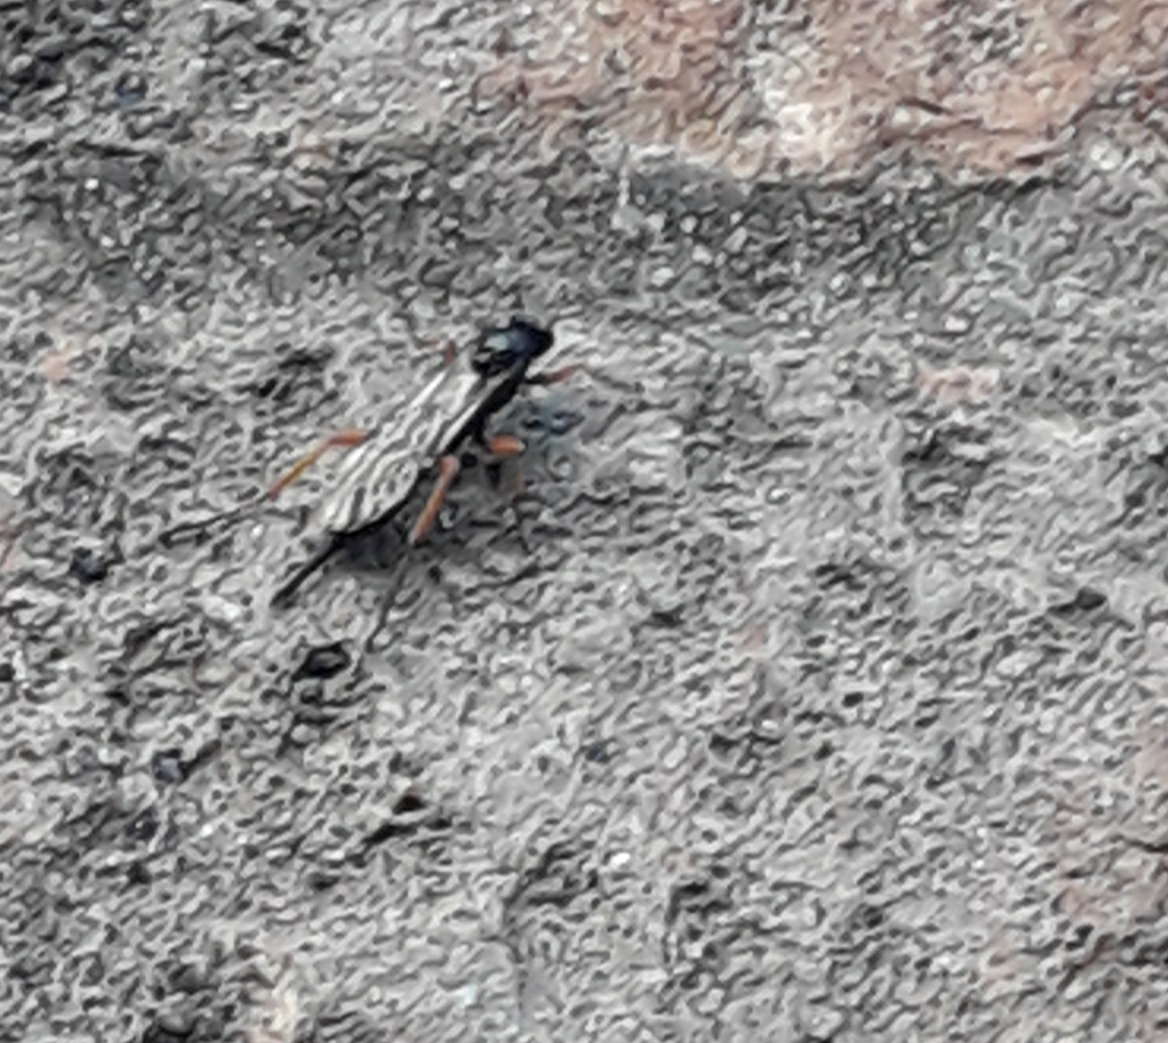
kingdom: Animalia
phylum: Arthropoda
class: Insecta
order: Hymenoptera
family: Ichneumonidae
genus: Pimpla
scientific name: Pimpla rufipes
